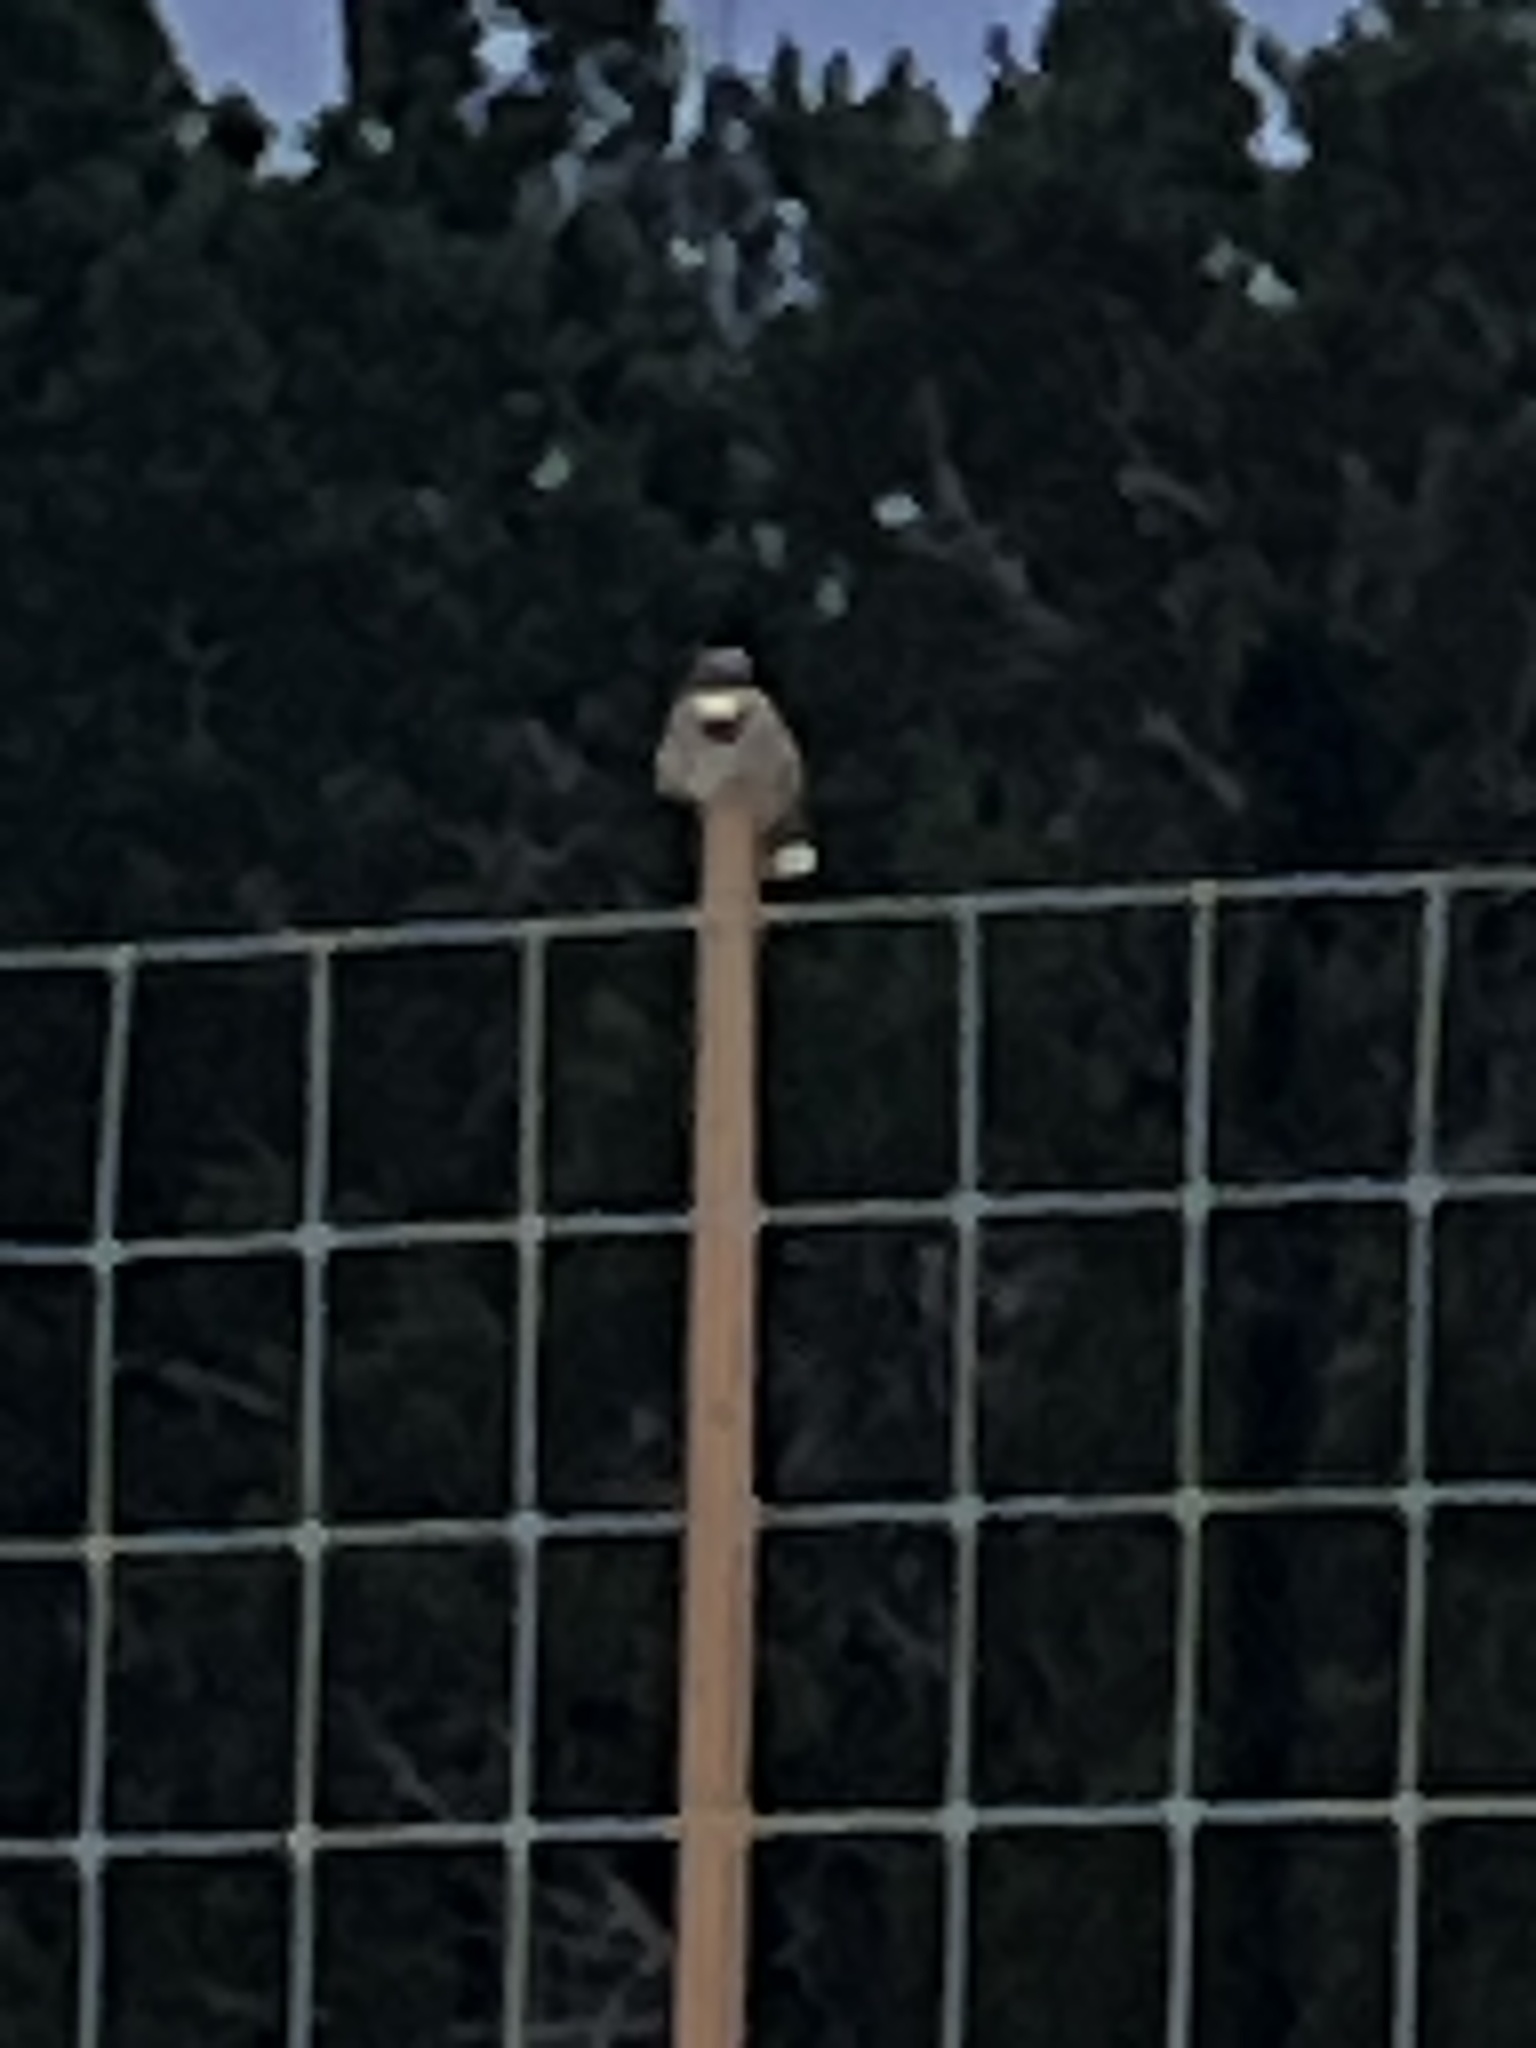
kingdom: Animalia
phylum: Chordata
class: Aves
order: Caprimulgiformes
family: Caprimulgidae
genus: Phalaenoptilus
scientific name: Phalaenoptilus nuttallii
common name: Common poorwill
